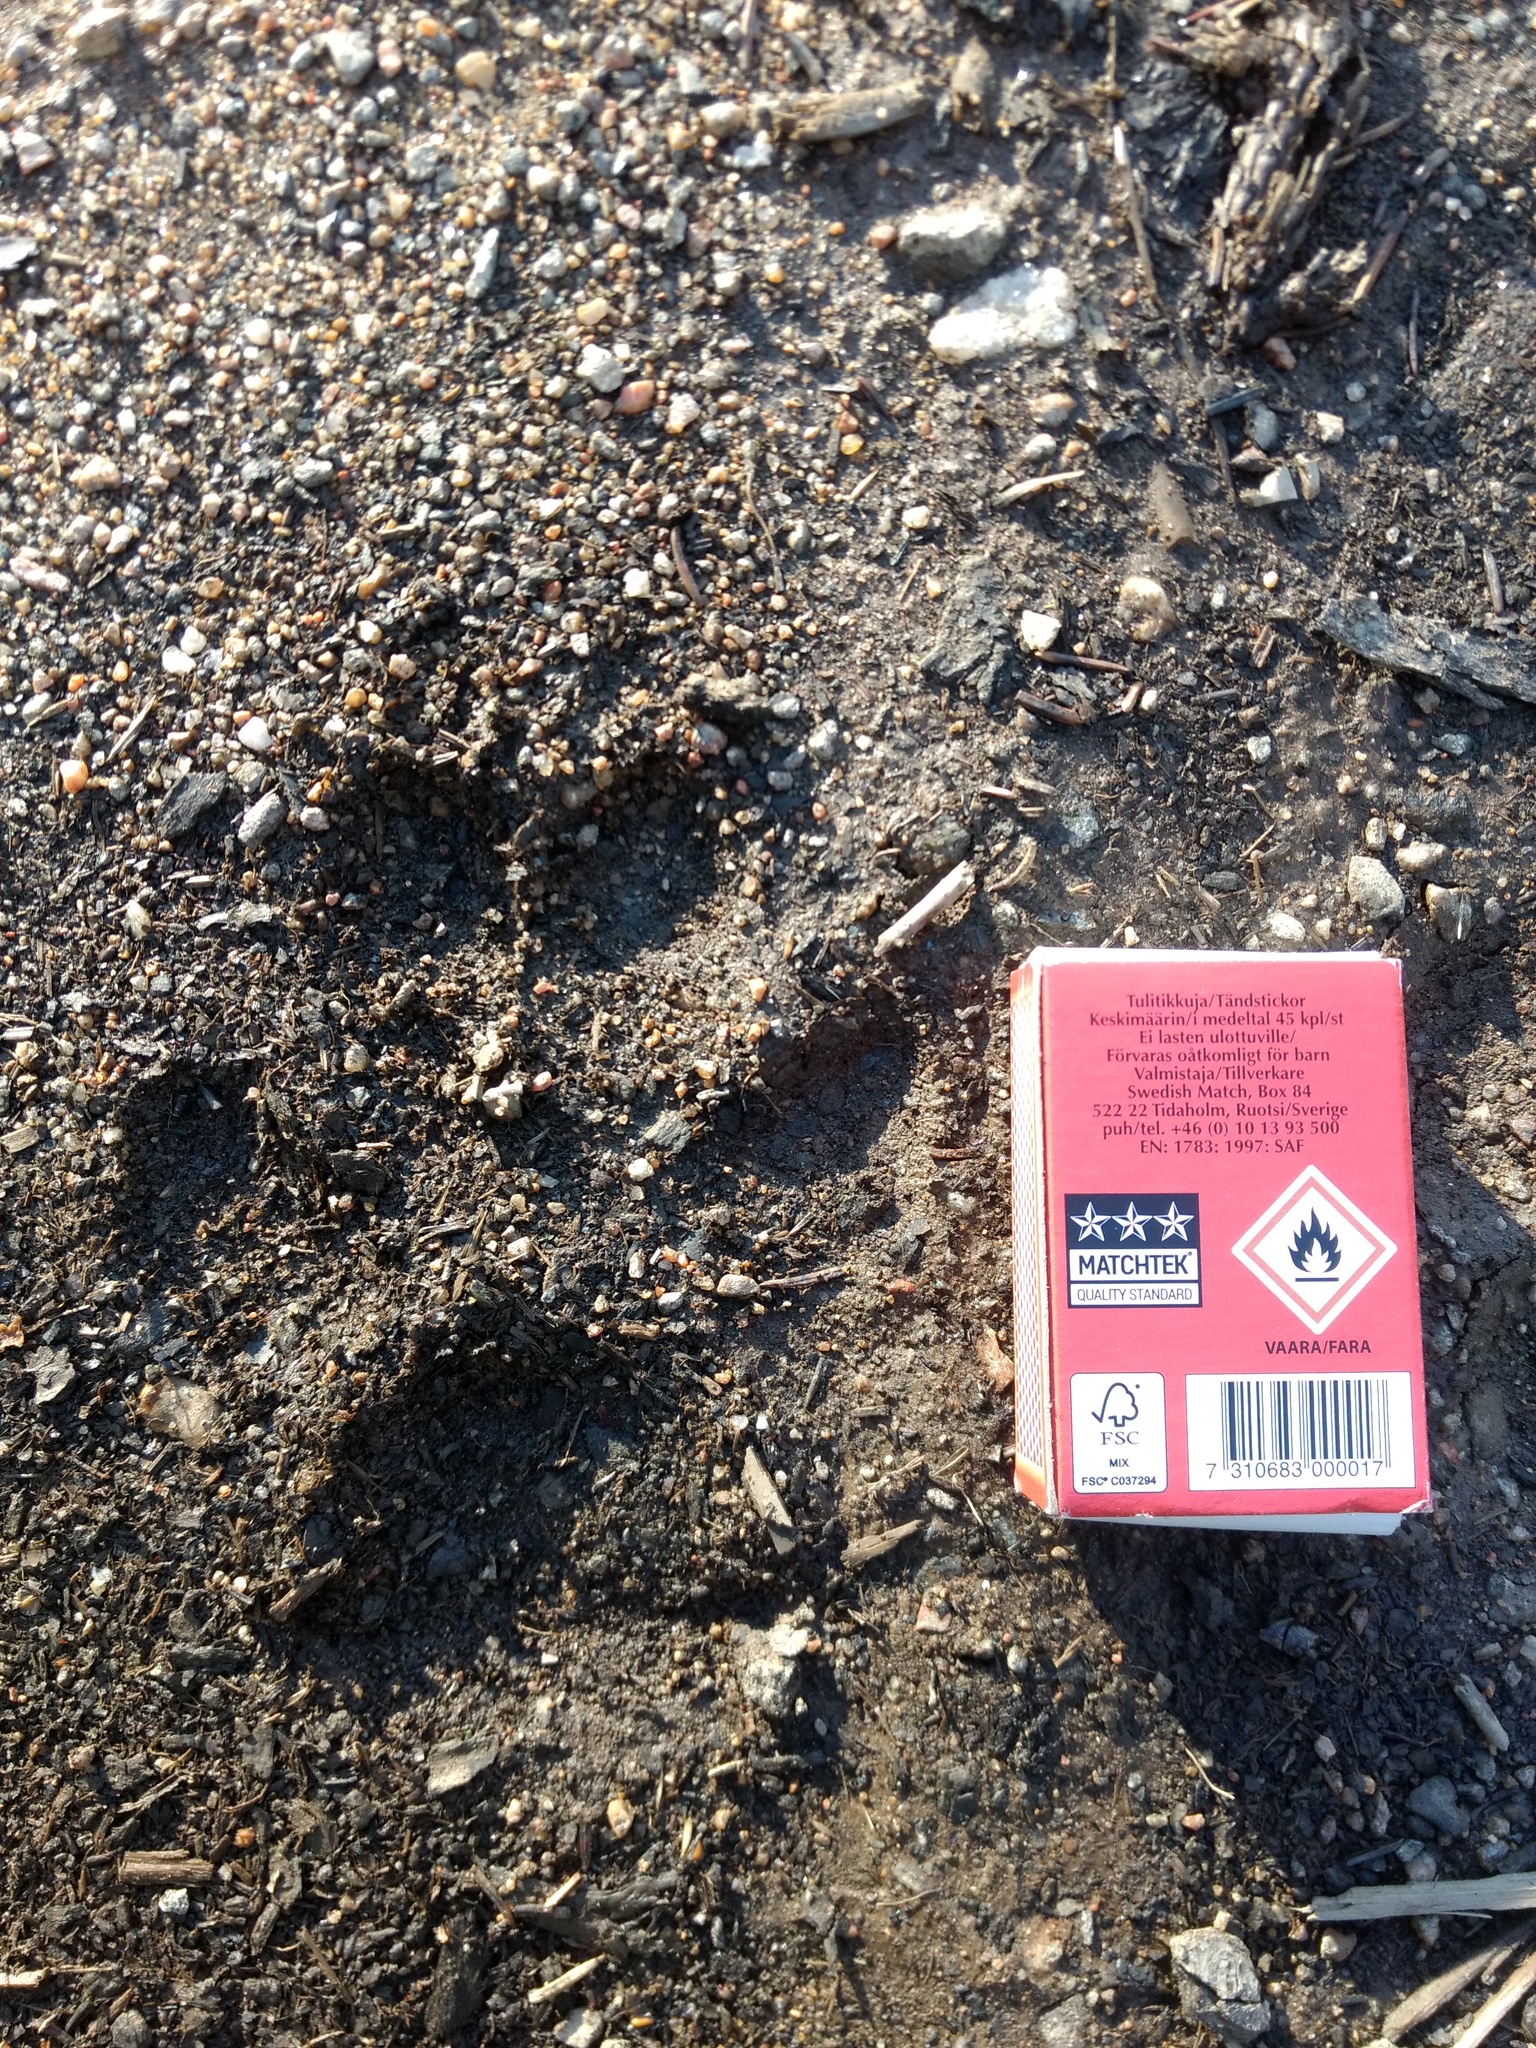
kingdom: Animalia
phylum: Chordata
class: Mammalia
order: Carnivora
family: Felidae
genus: Lynx
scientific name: Lynx lynx
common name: Eurasian lynx
